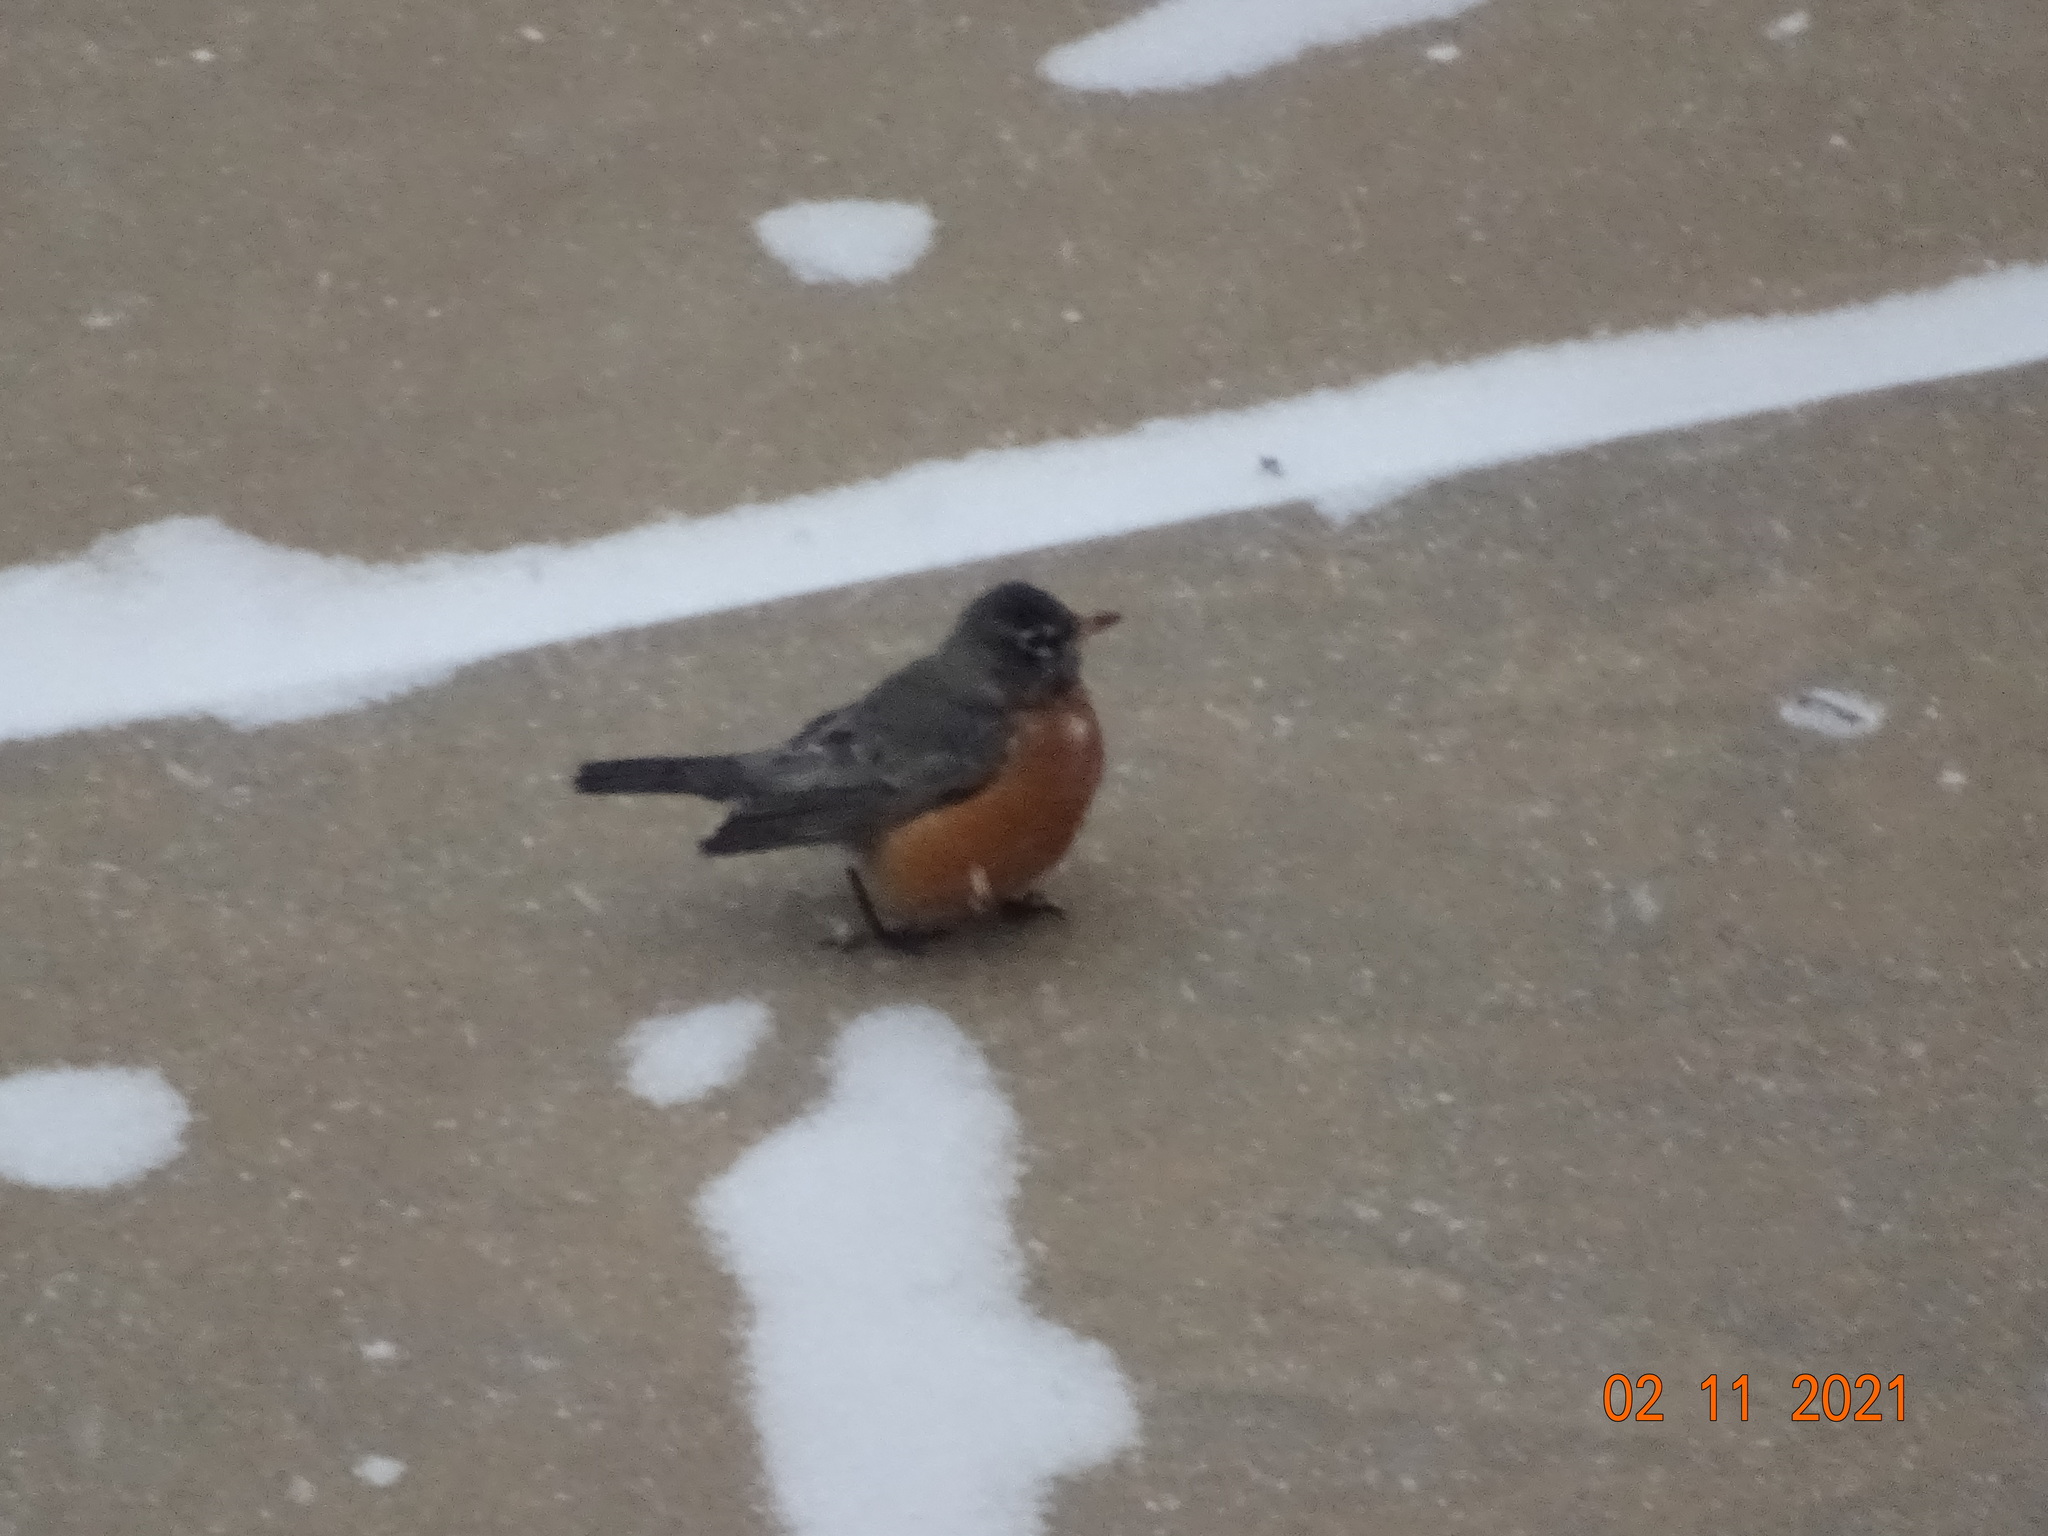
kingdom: Animalia
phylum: Chordata
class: Aves
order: Passeriformes
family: Turdidae
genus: Turdus
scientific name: Turdus migratorius
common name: American robin
